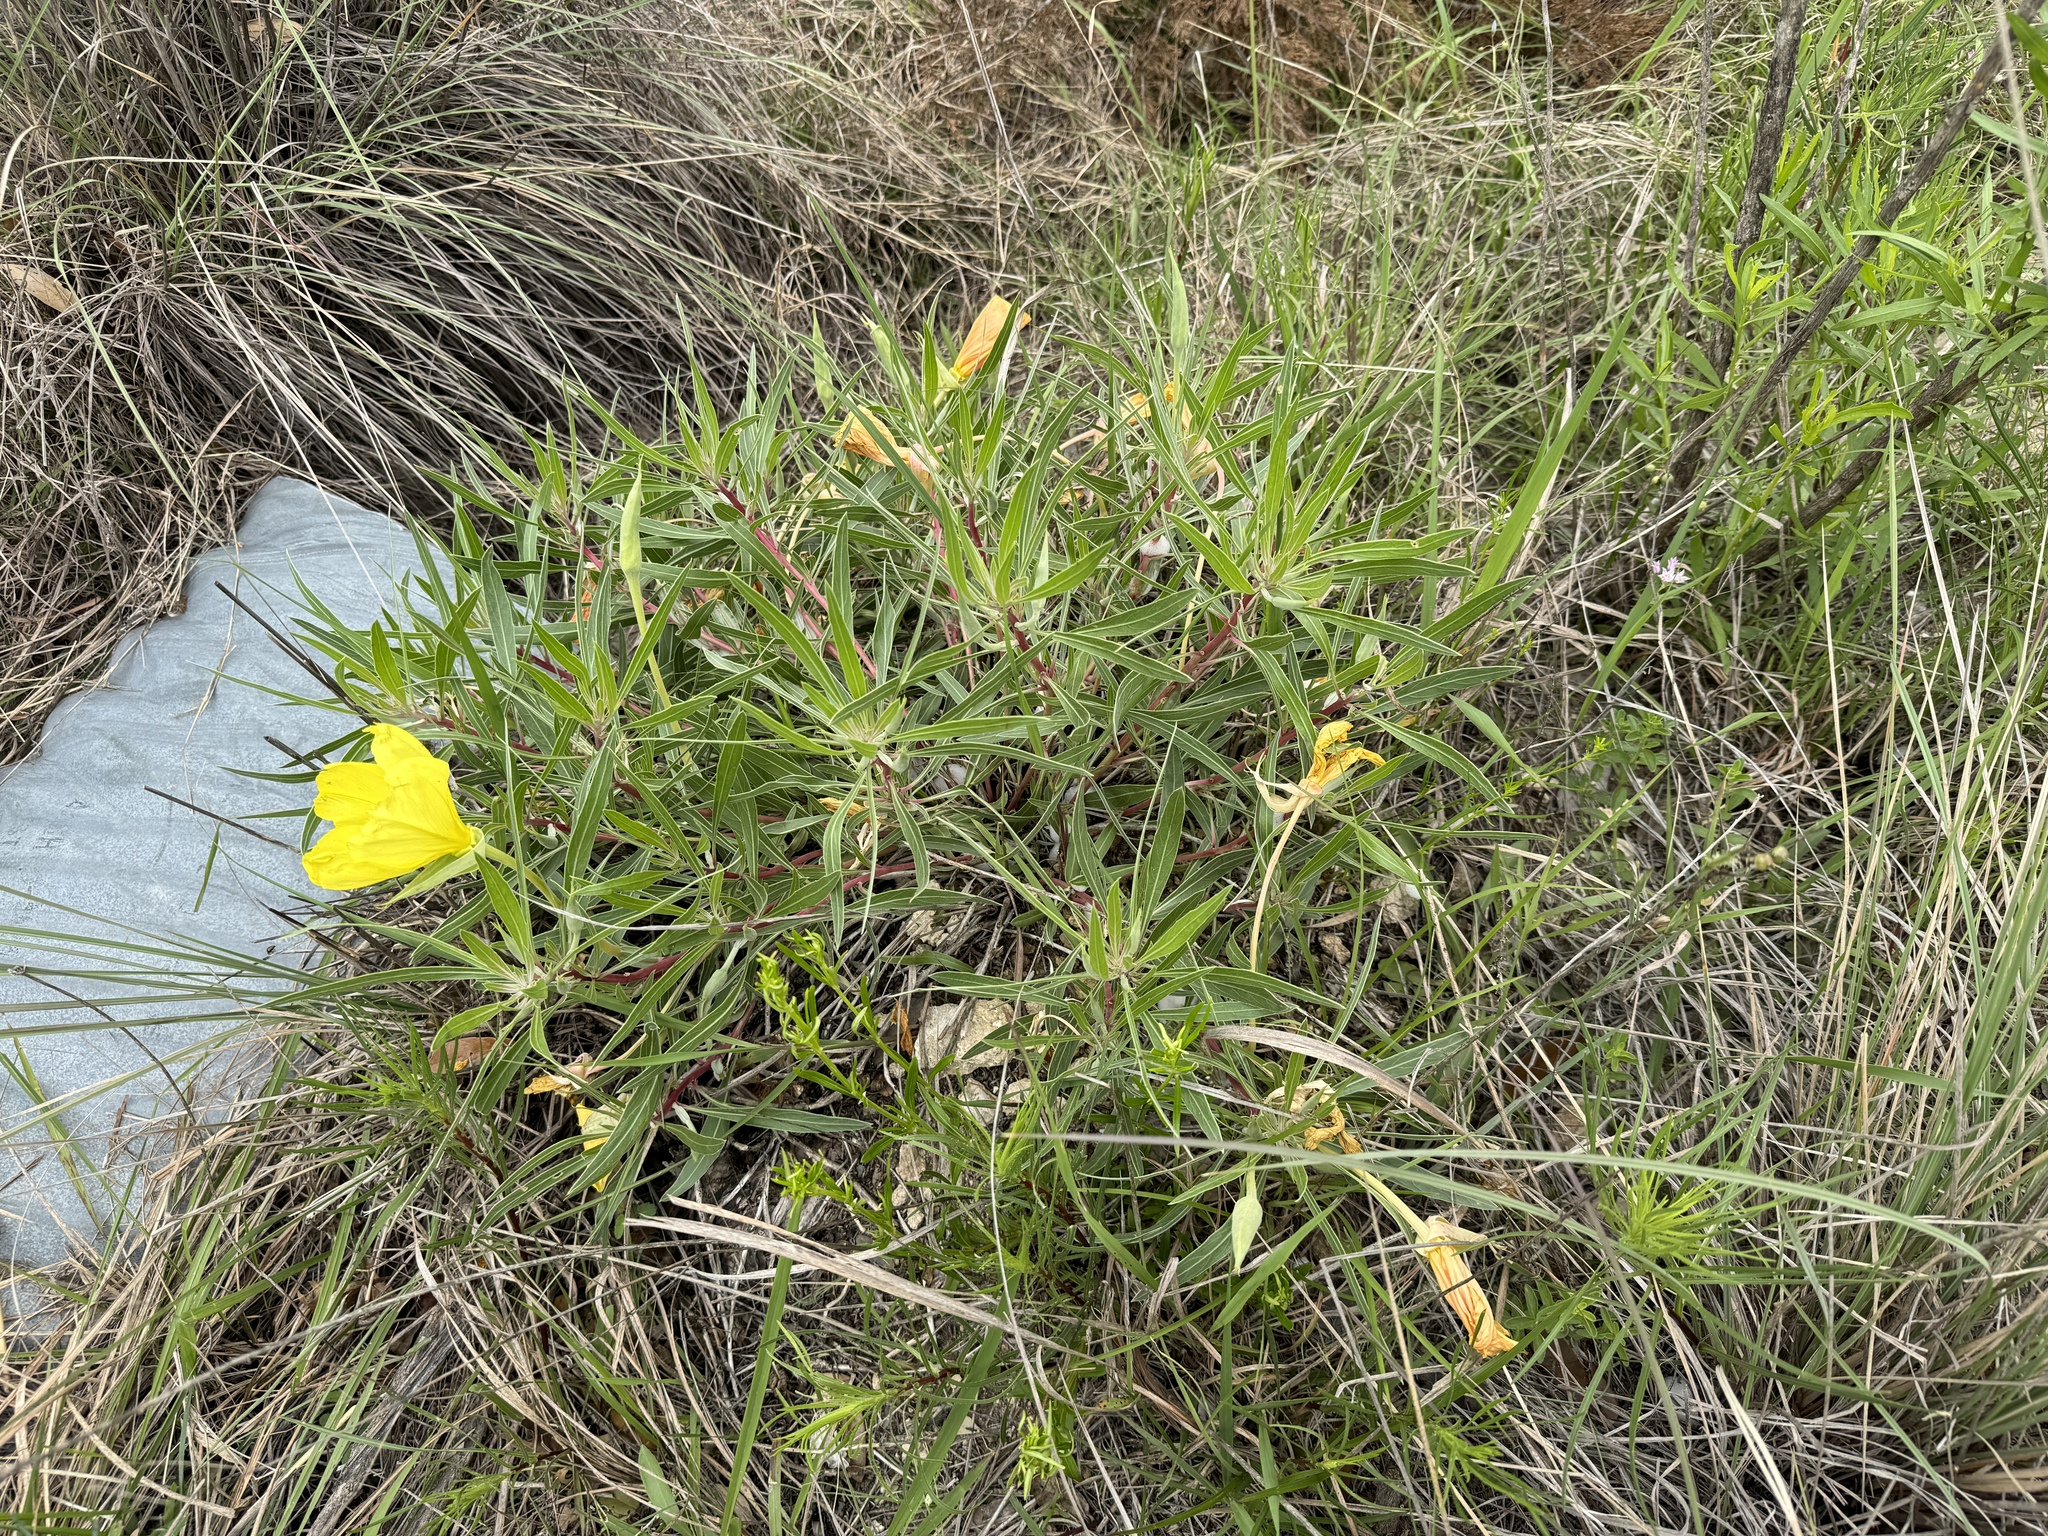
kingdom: Plantae
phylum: Tracheophyta
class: Magnoliopsida
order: Myrtales
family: Onagraceae
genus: Oenothera
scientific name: Oenothera macrocarpa
